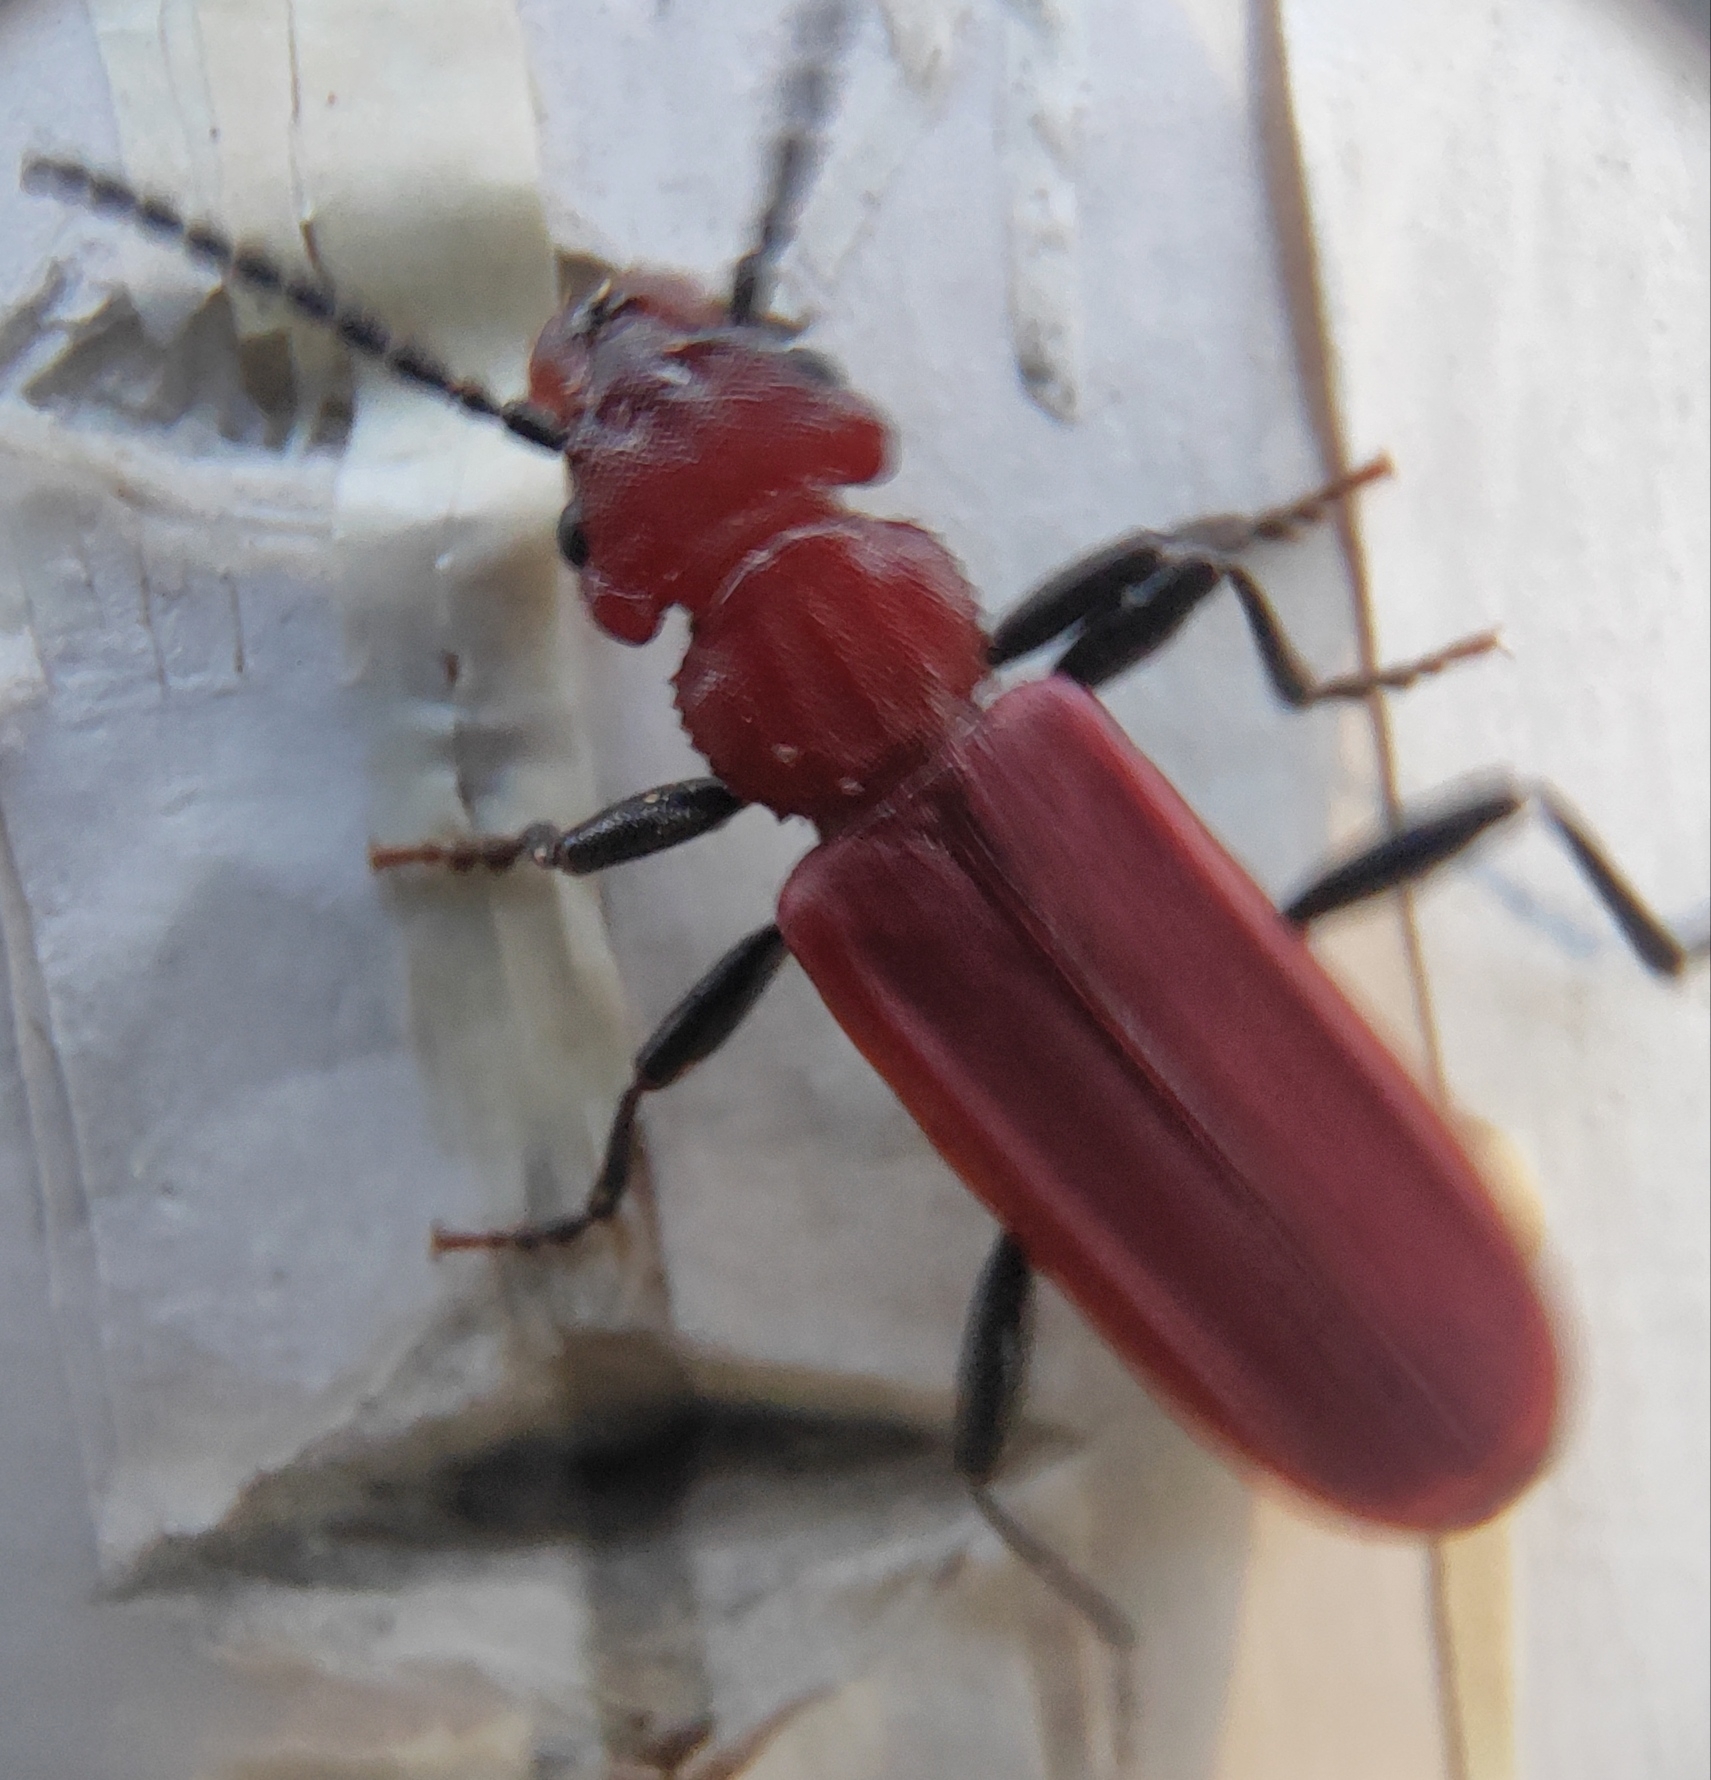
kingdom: Animalia
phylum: Arthropoda
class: Insecta
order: Coleoptera
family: Cucujidae
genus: Cucujus
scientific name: Cucujus haematodes
